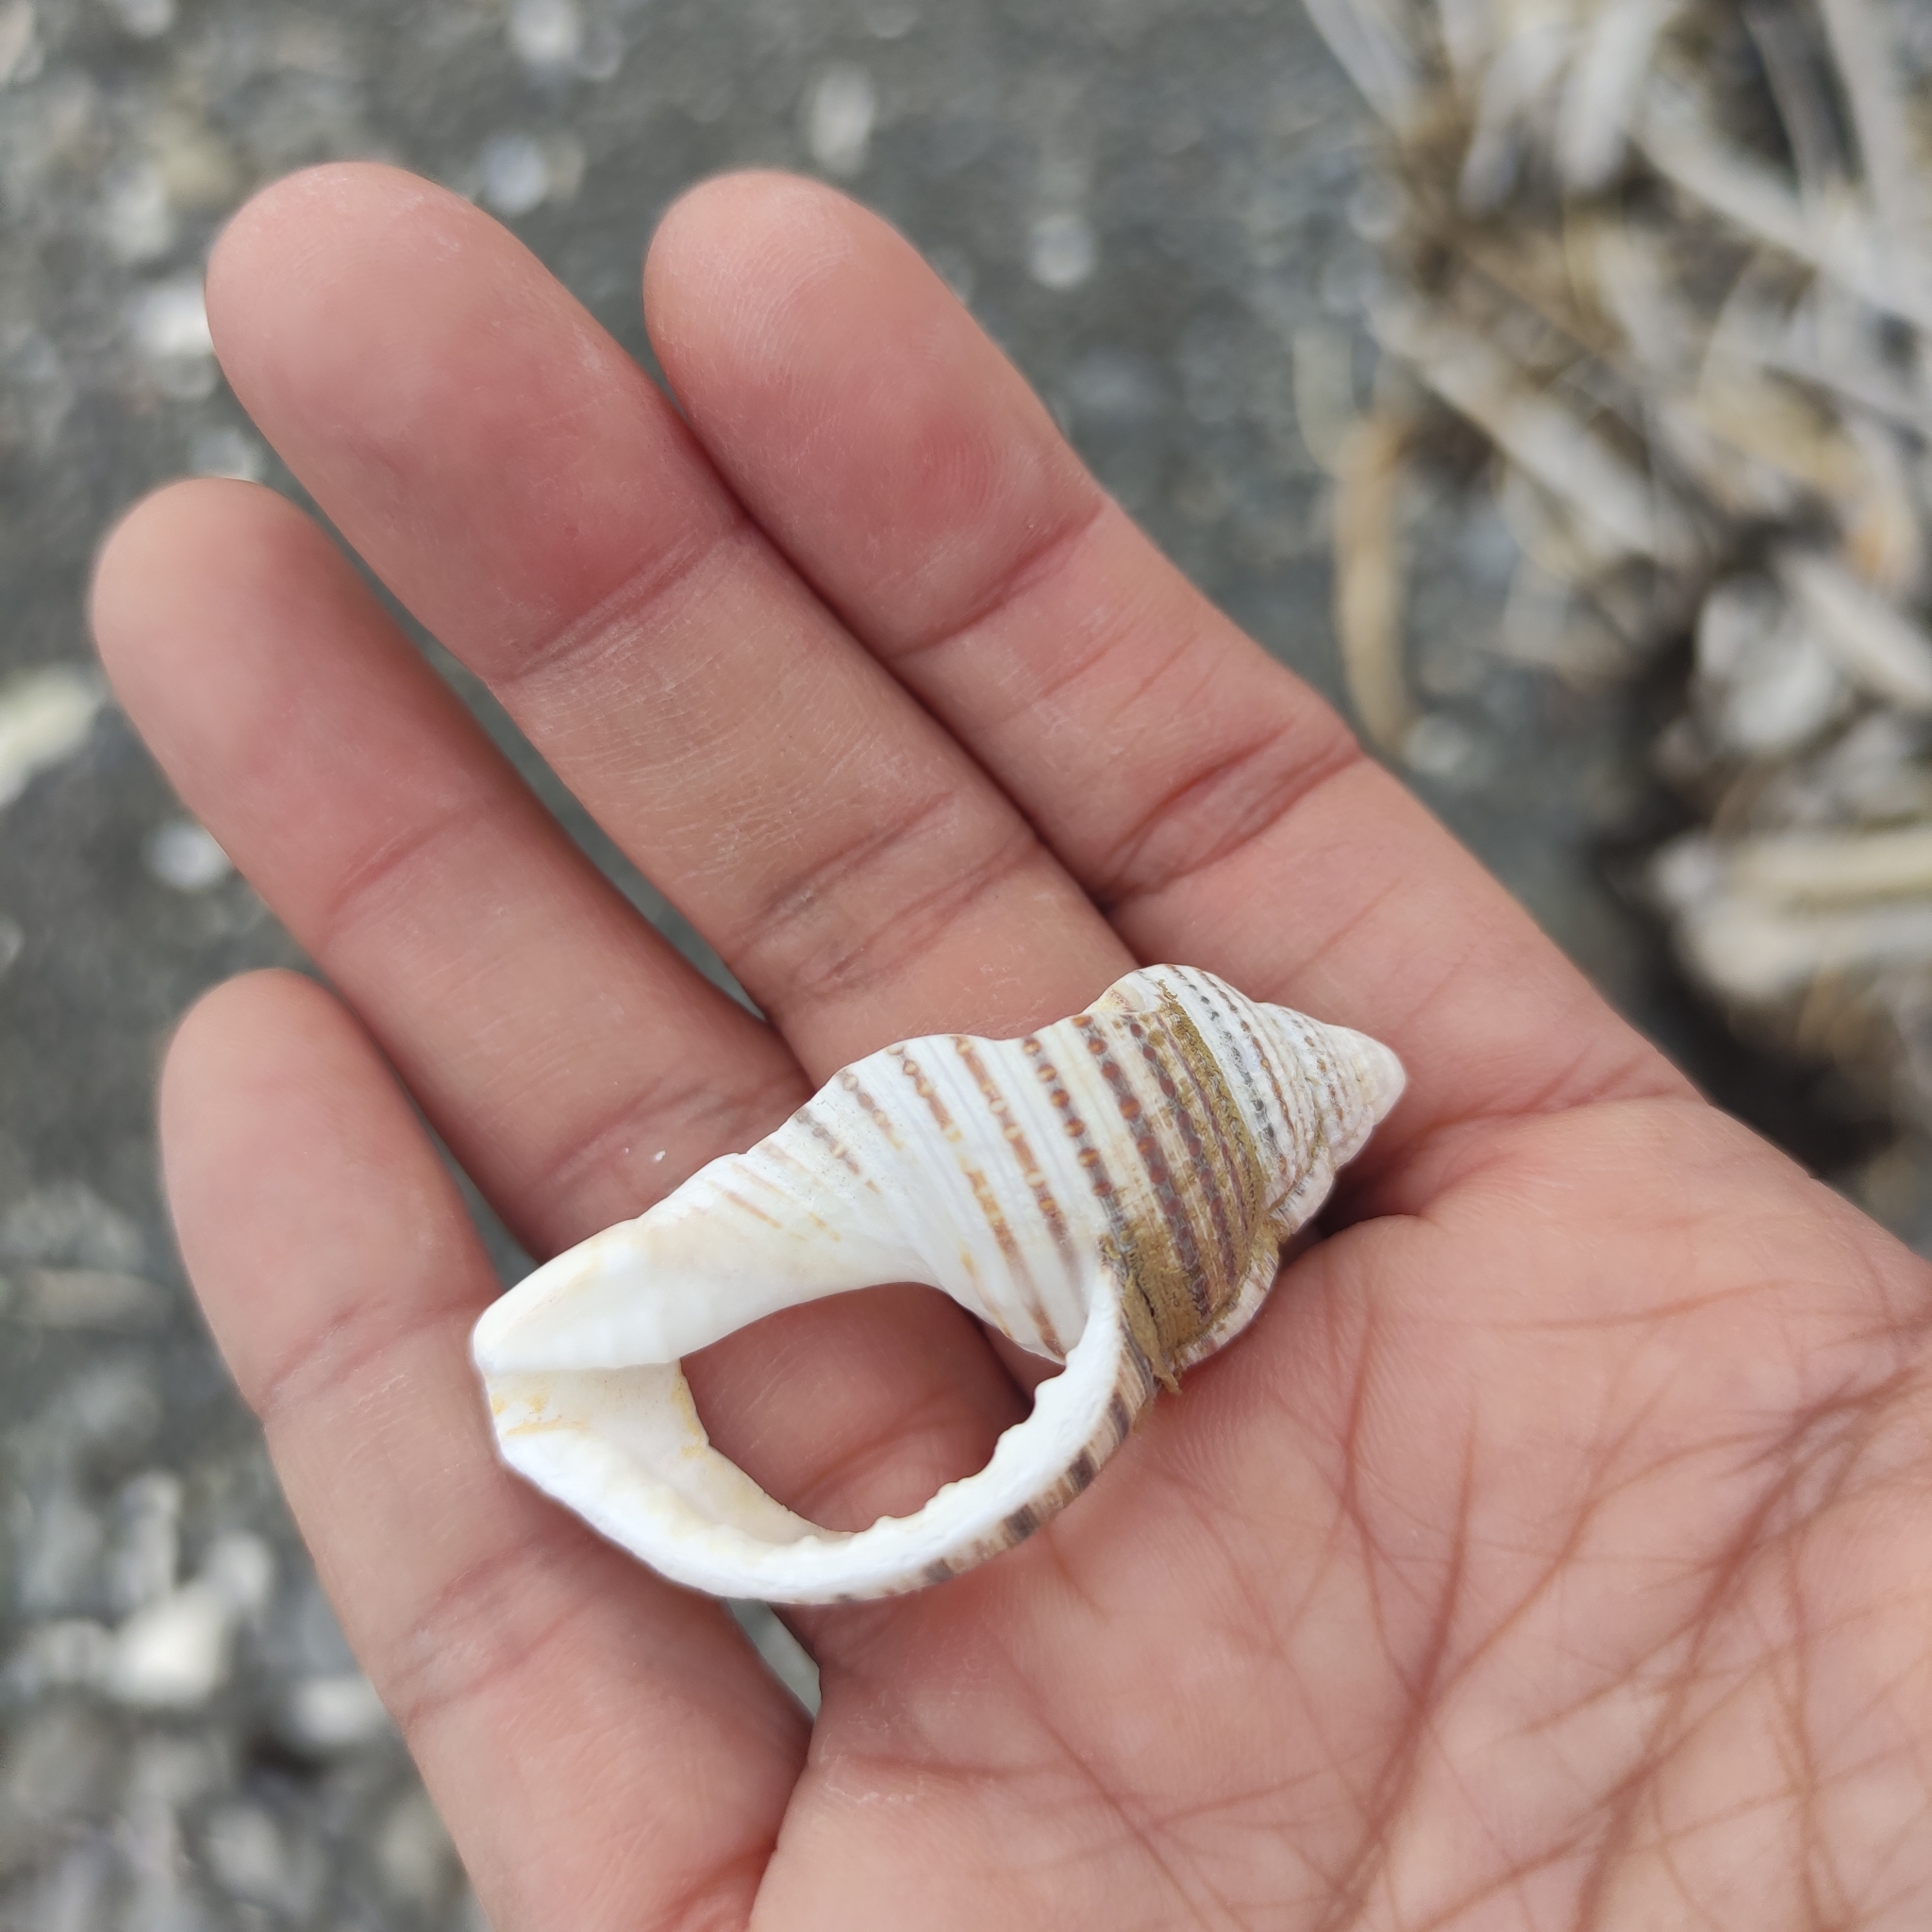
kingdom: Animalia
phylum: Mollusca
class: Gastropoda
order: Littorinimorpha
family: Cymatiidae
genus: Argobuccinum
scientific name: Argobuccinum pustulosum
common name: Pustular triton
